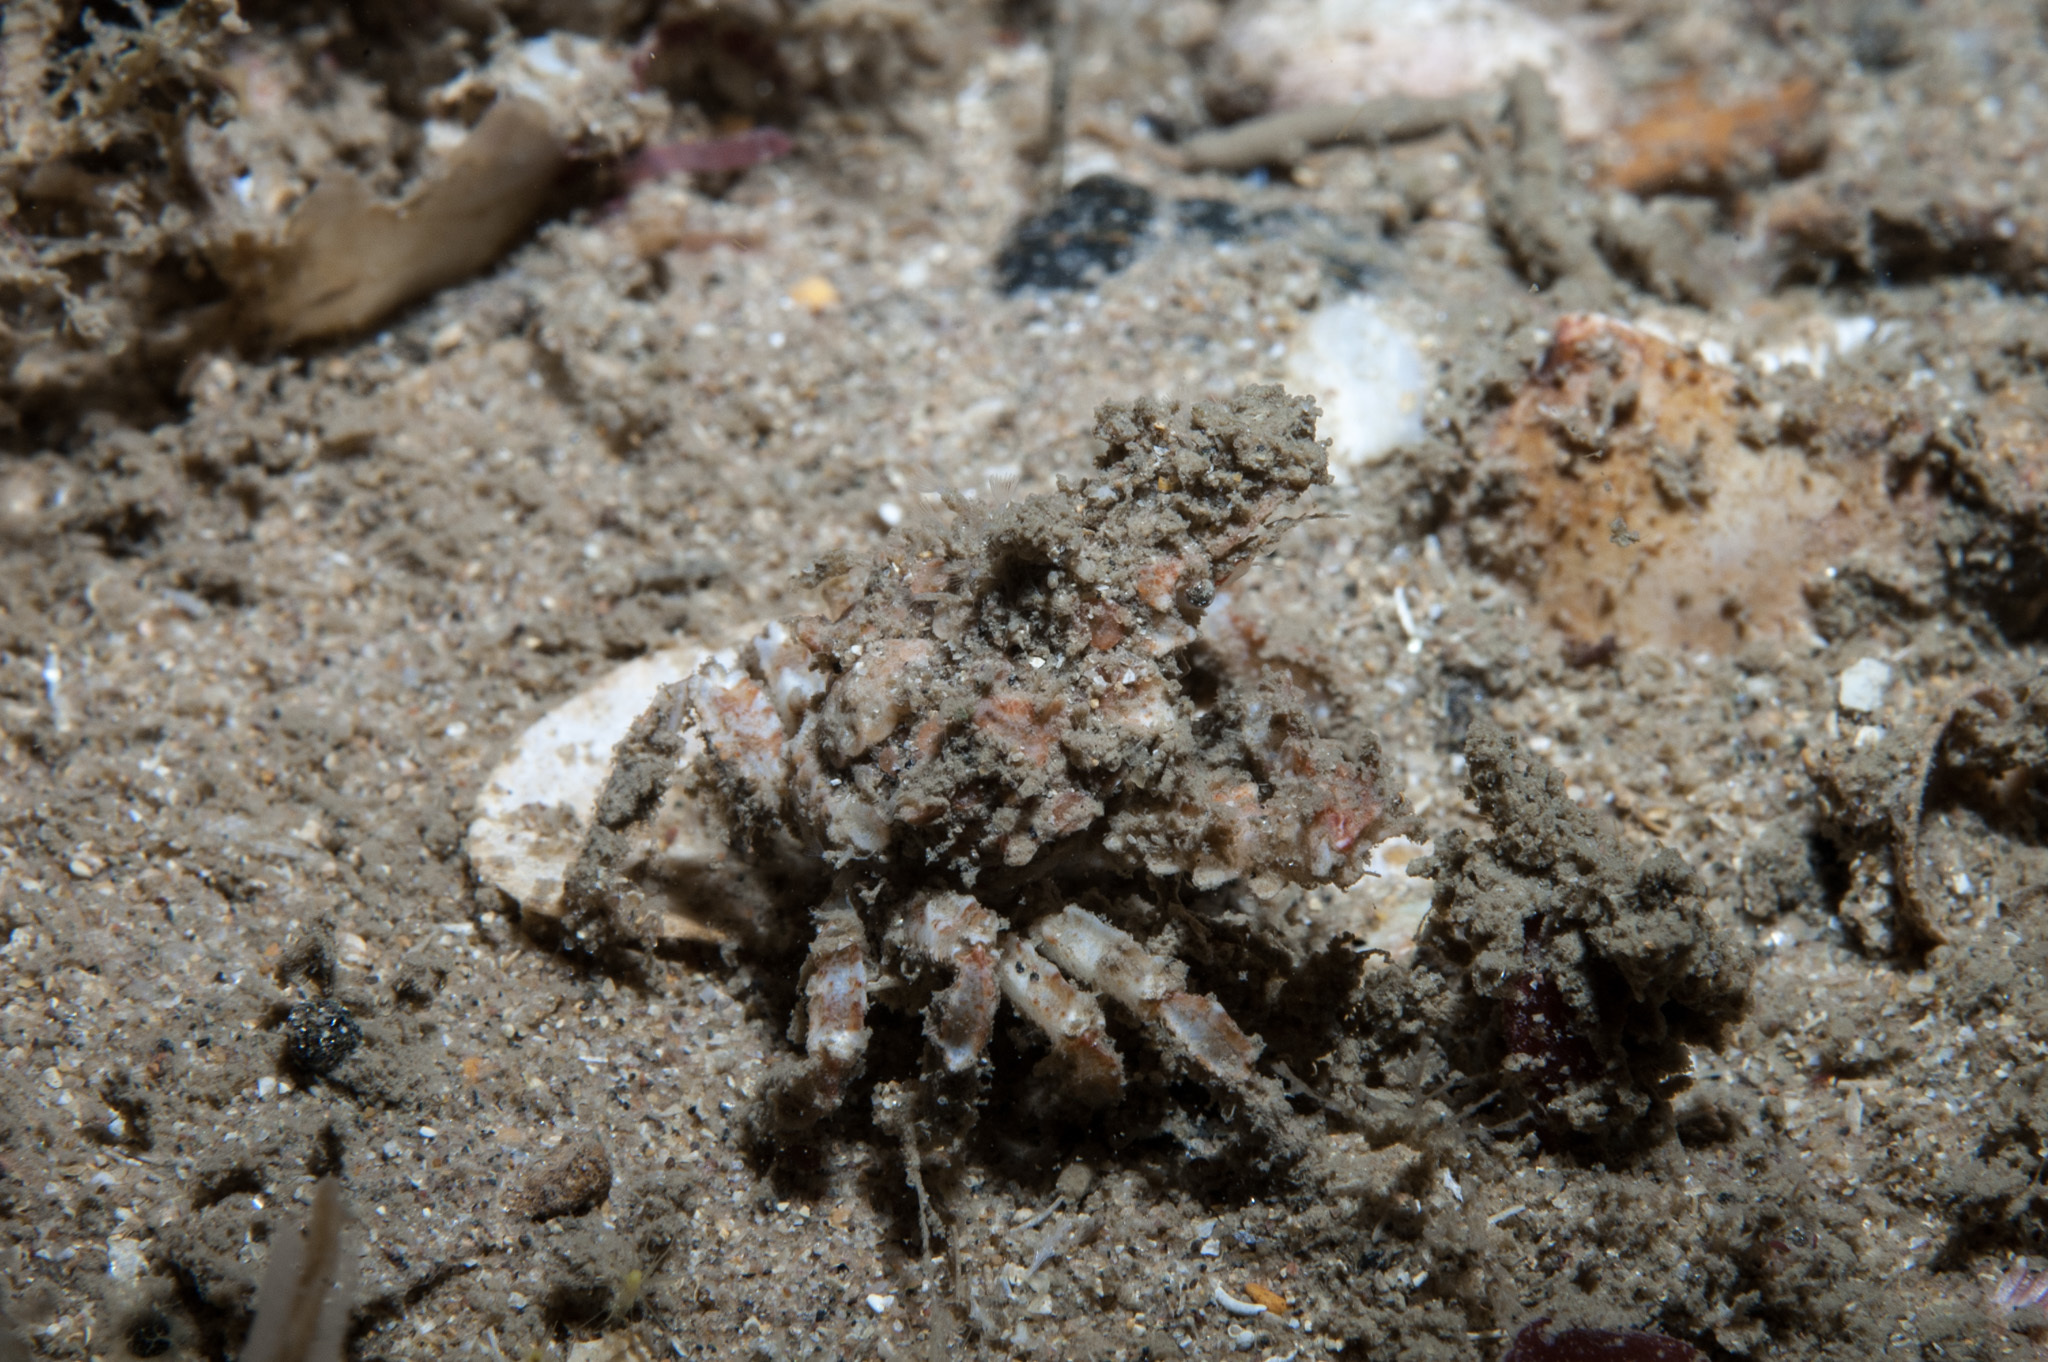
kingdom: Animalia
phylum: Arthropoda
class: Malacostraca
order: Decapoda
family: Majidae
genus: Eurynome
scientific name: Eurynome aspera
